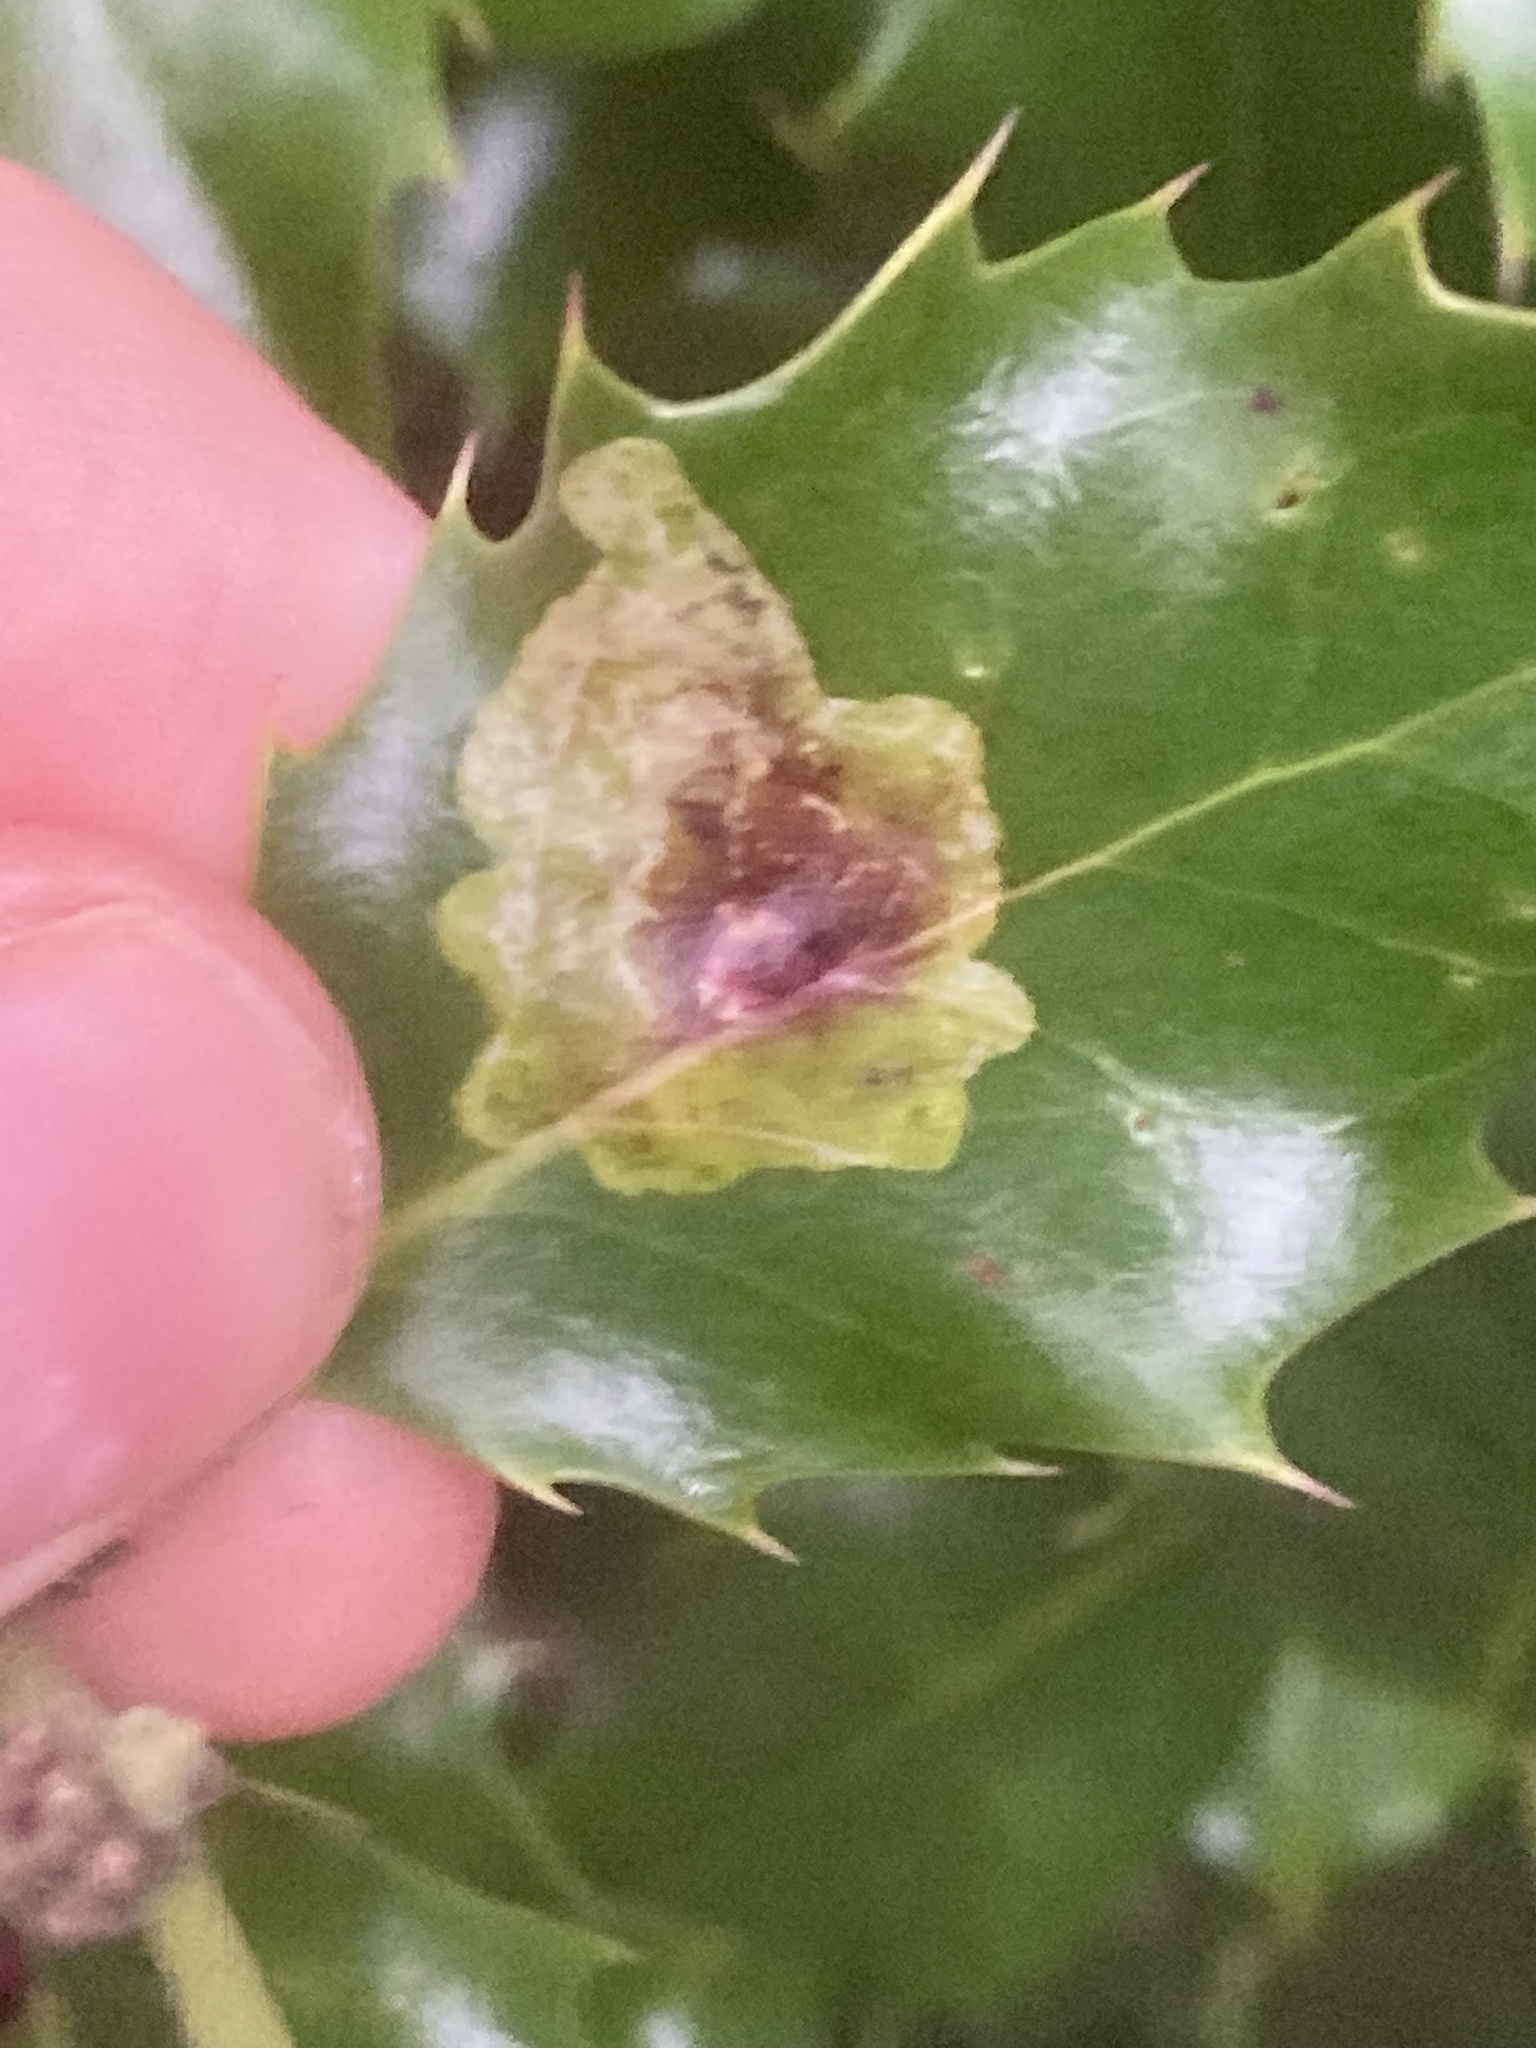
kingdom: Animalia
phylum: Arthropoda
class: Insecta
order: Diptera
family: Agromyzidae
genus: Phytomyza
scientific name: Phytomyza ilicis
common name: Holly leafminer
